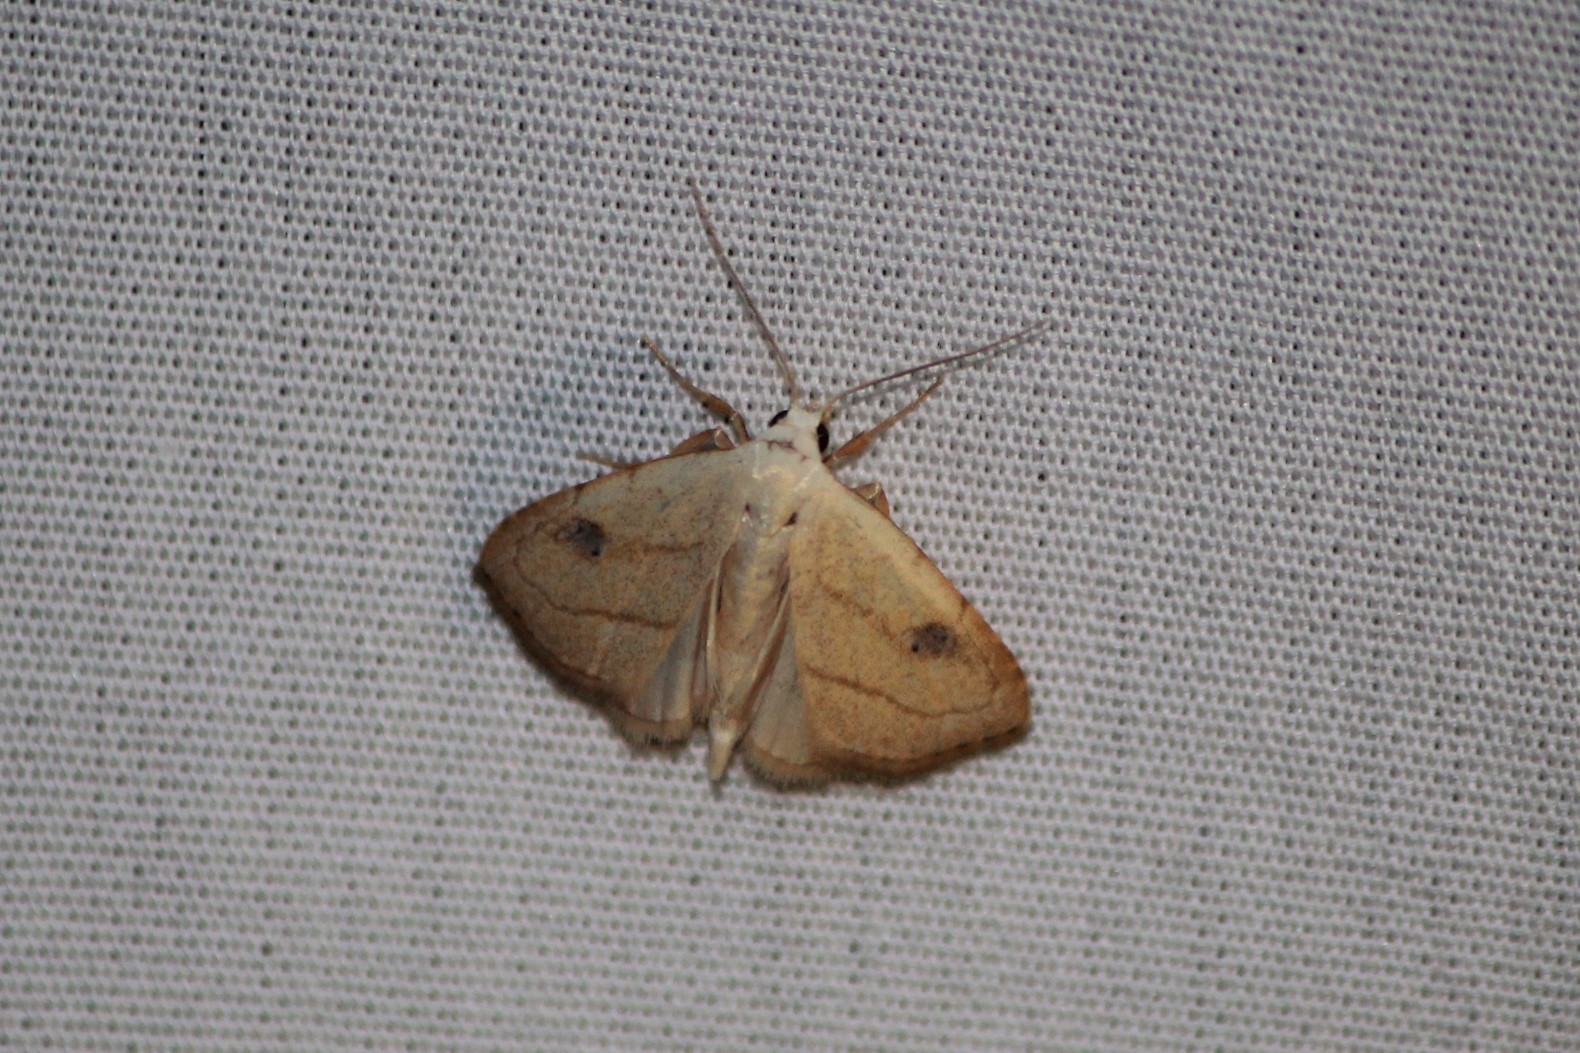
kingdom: Animalia
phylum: Arthropoda
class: Insecta
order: Lepidoptera
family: Erebidae
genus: Rivula
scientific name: Rivula propinqualis
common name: Spotted grass moth
